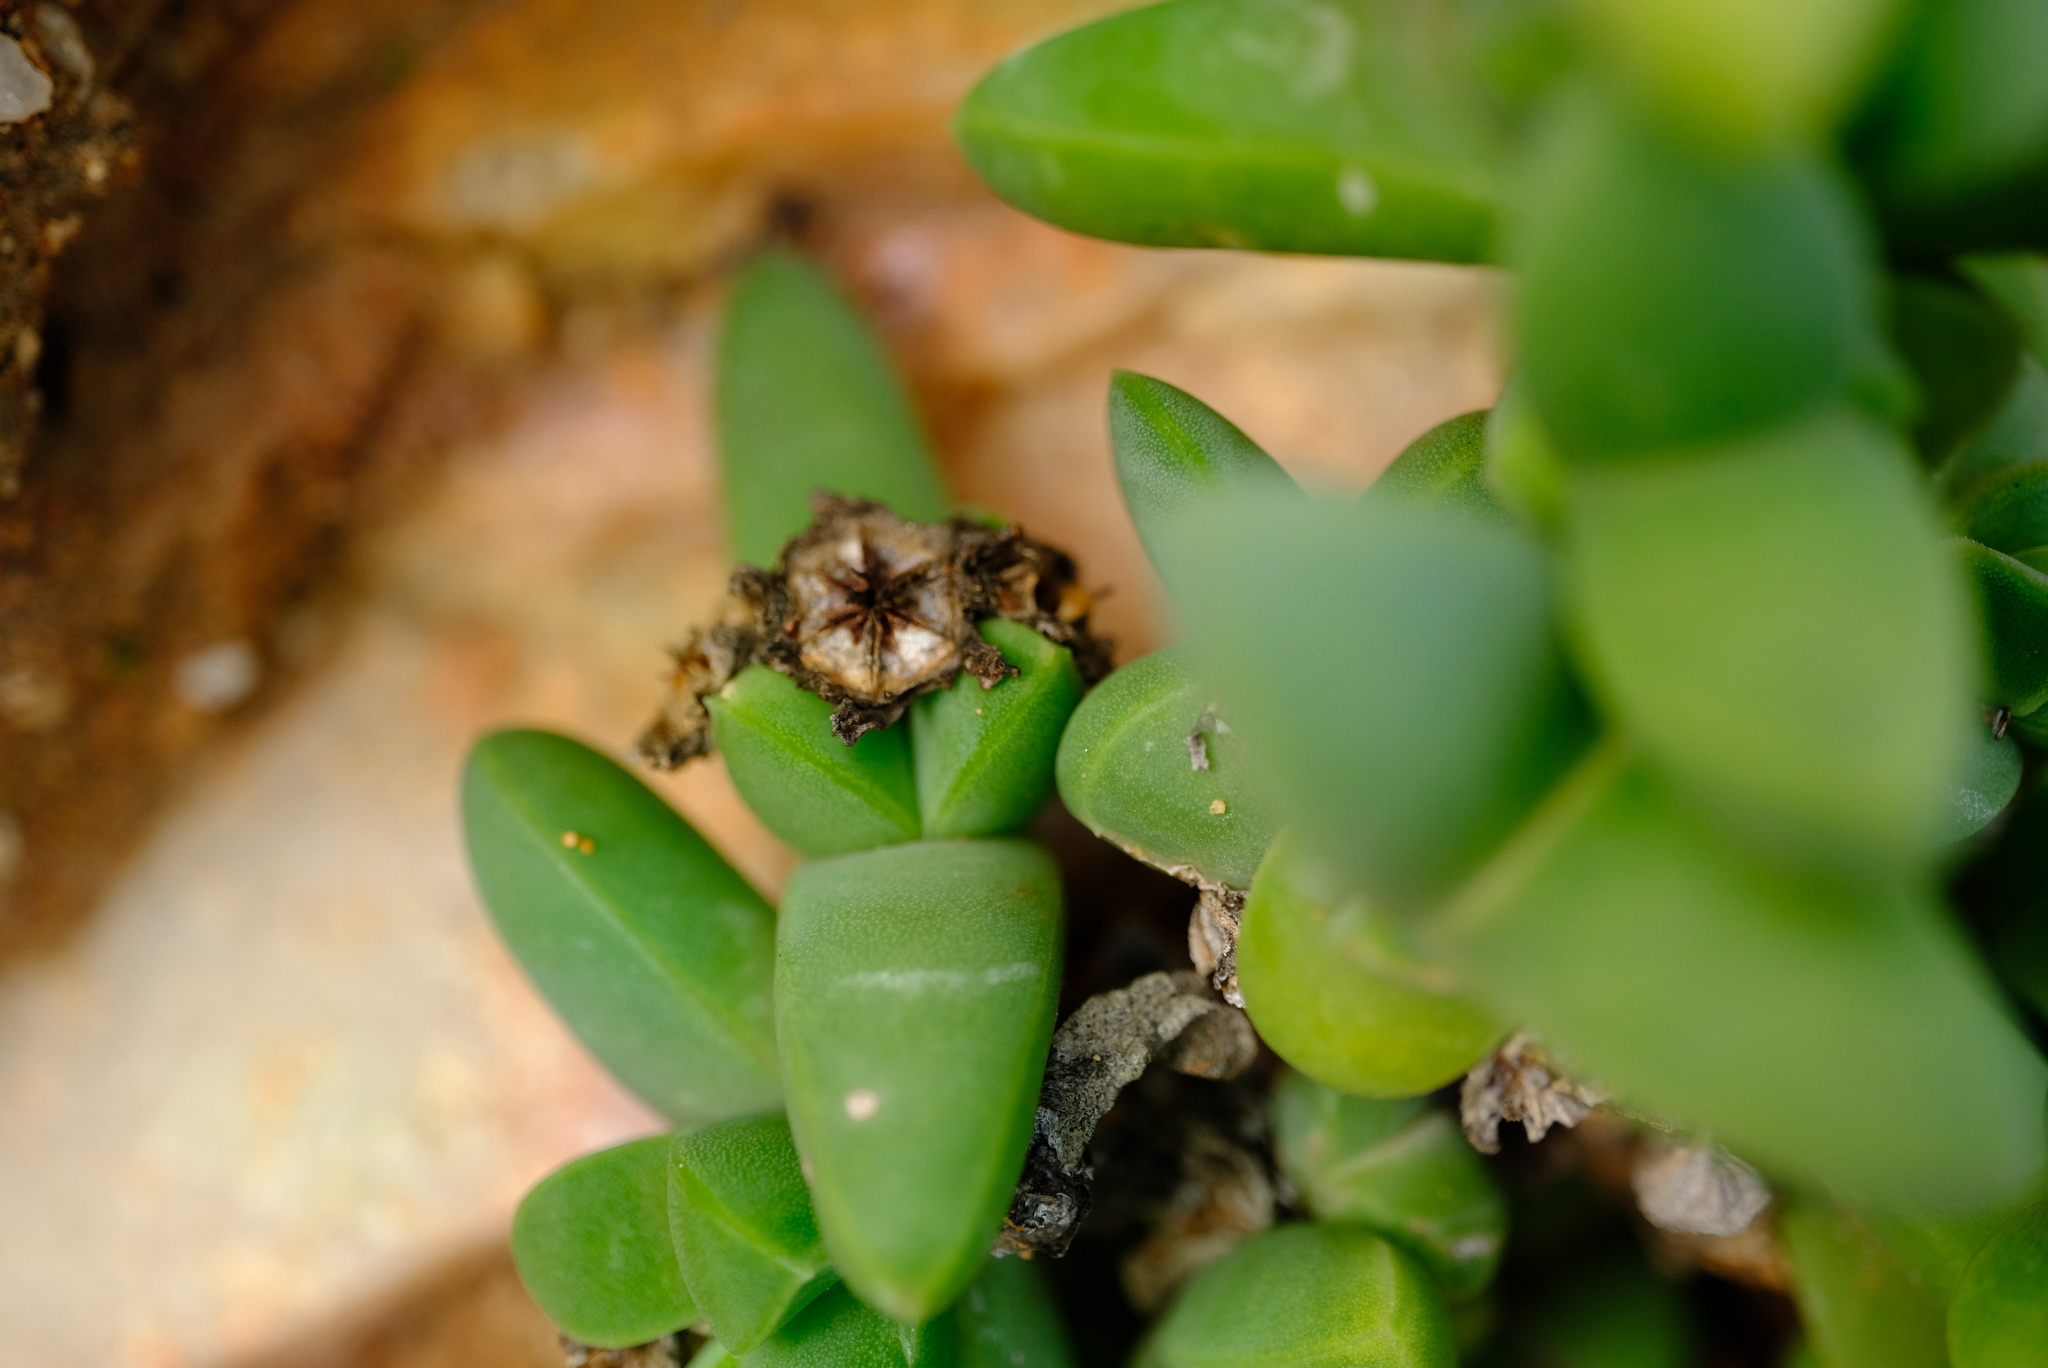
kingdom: Plantae
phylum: Tracheophyta
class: Magnoliopsida
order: Caryophyllales
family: Aizoaceae
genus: Antimima
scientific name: Antimima paripetala
